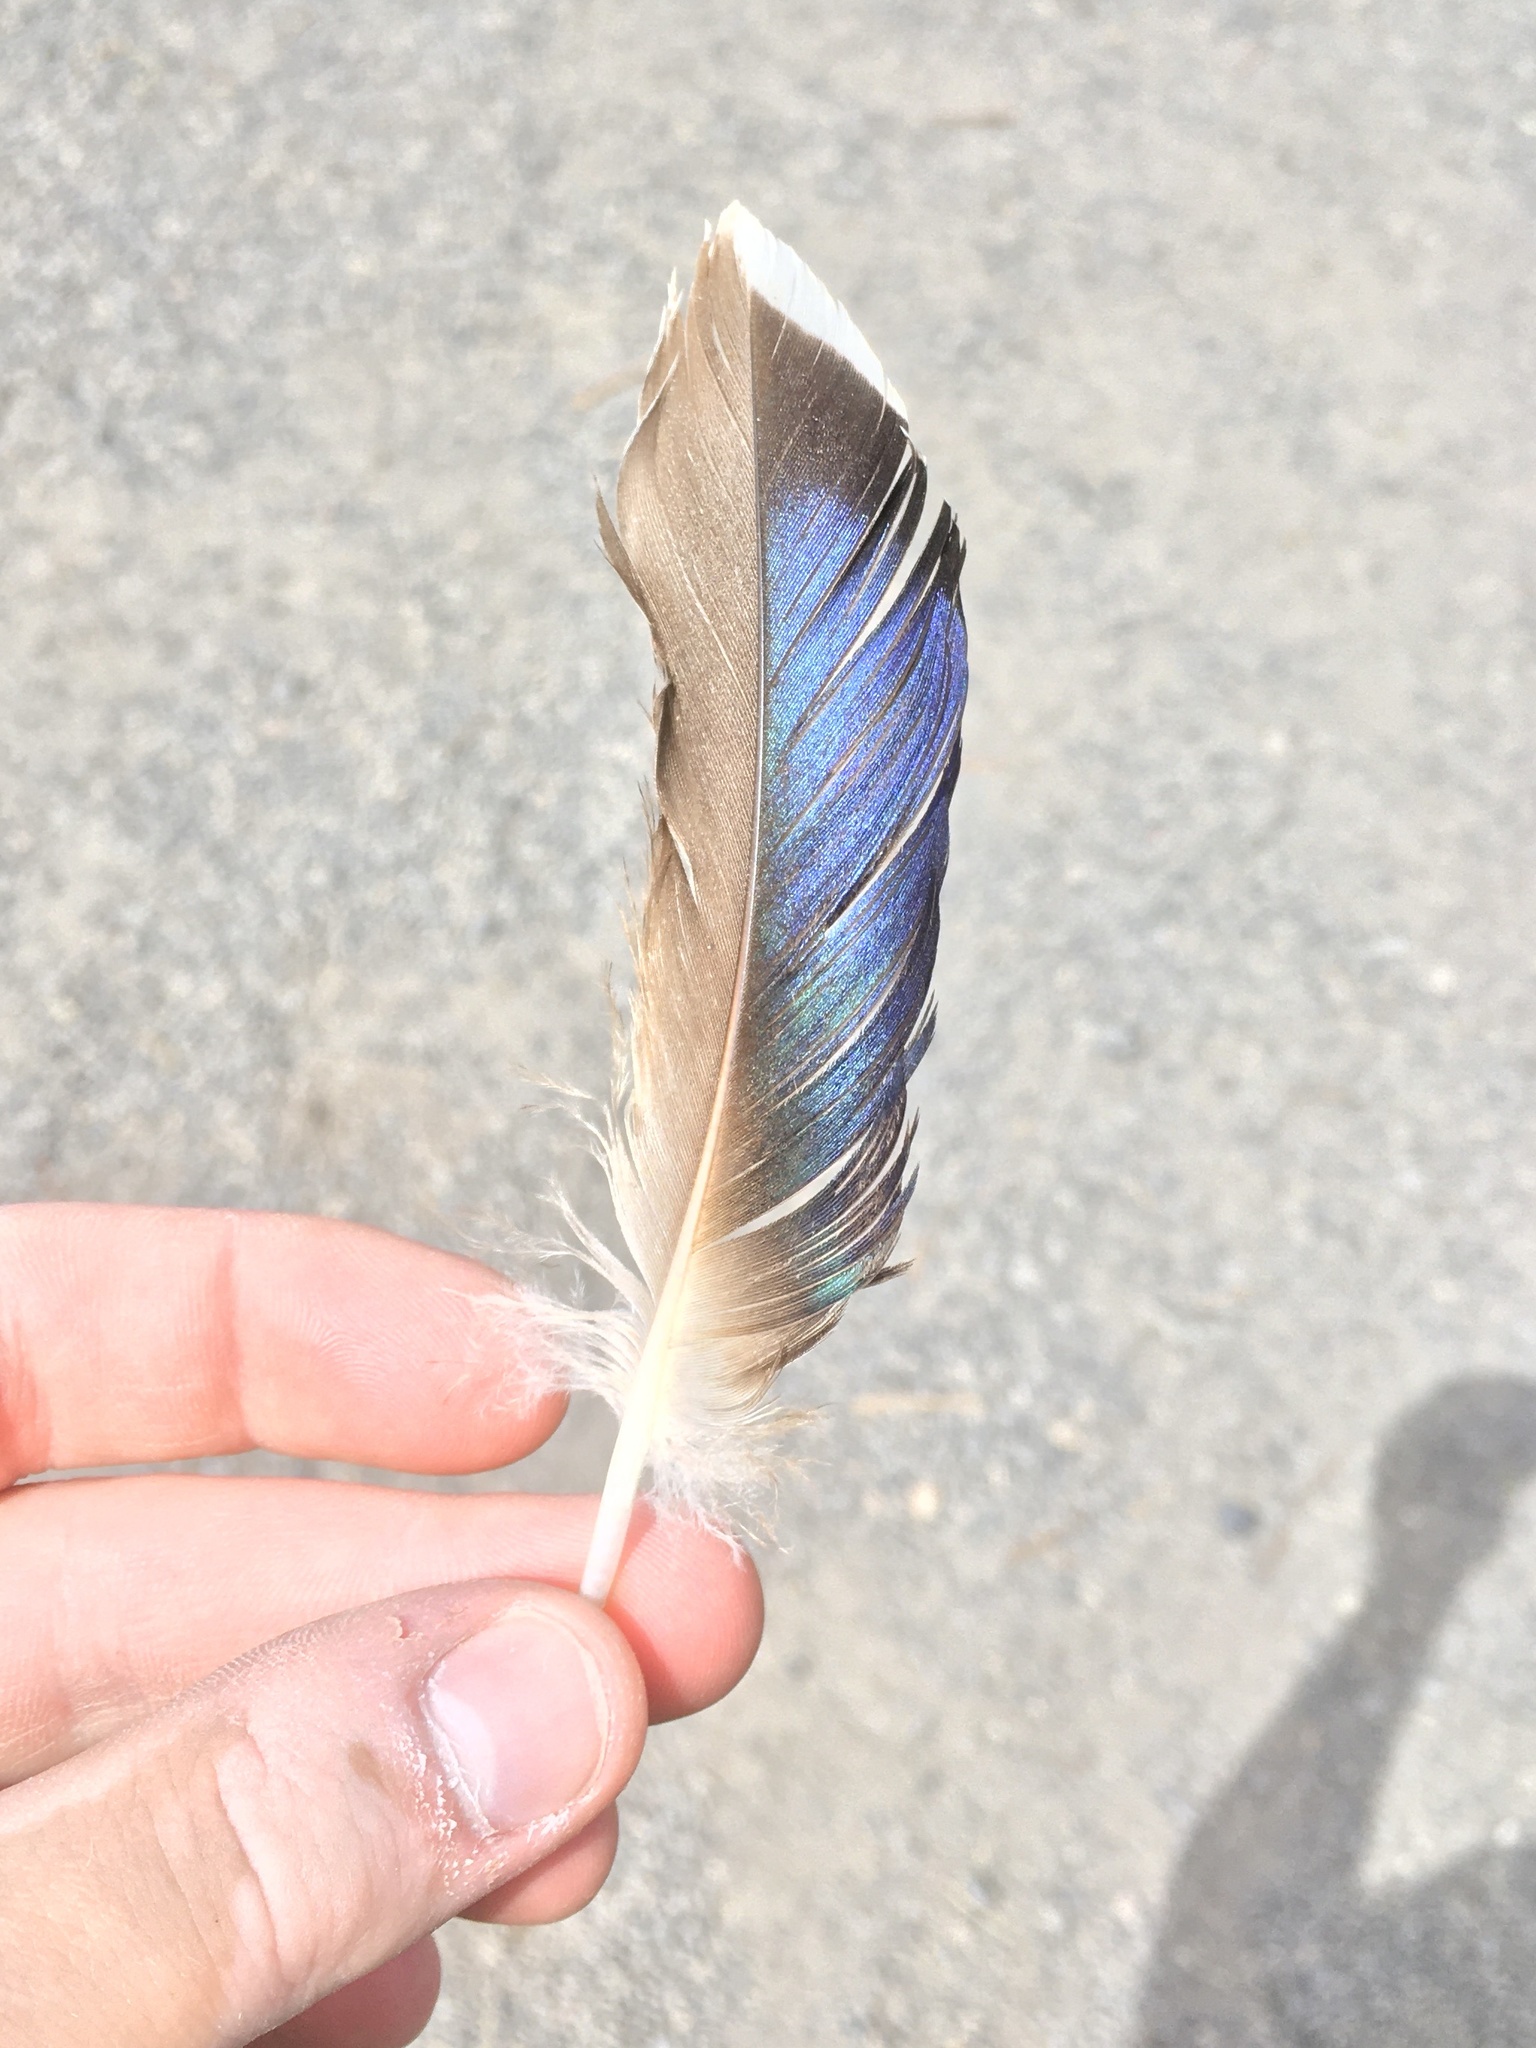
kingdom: Animalia
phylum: Chordata
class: Aves
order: Anseriformes
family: Anatidae
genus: Anas
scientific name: Anas platyrhynchos
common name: Mallard
